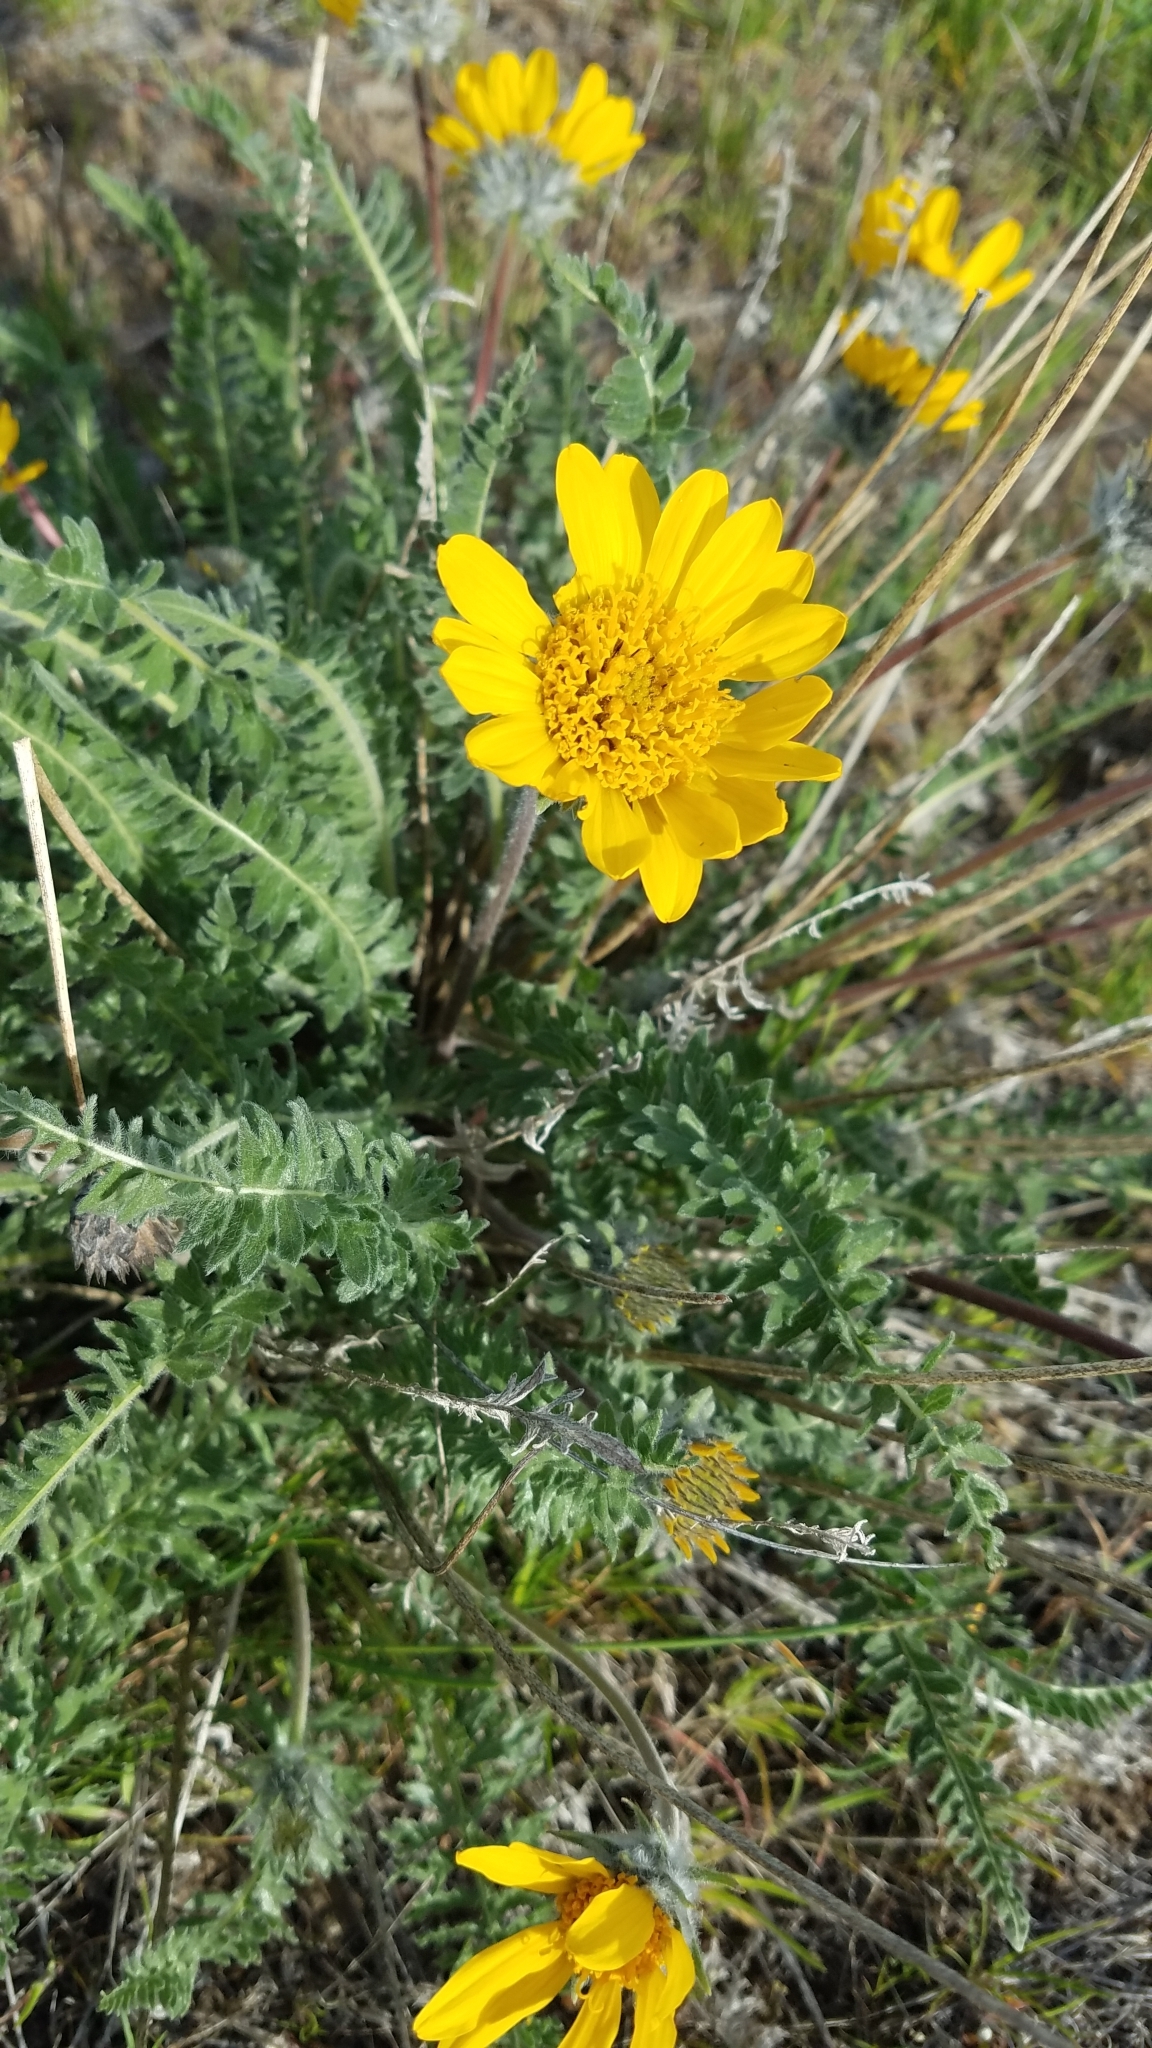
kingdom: Plantae
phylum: Tracheophyta
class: Magnoliopsida
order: Asterales
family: Asteraceae
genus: Balsamorhiza
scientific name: Balsamorhiza hookeri
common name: Hooker's balsamroot
